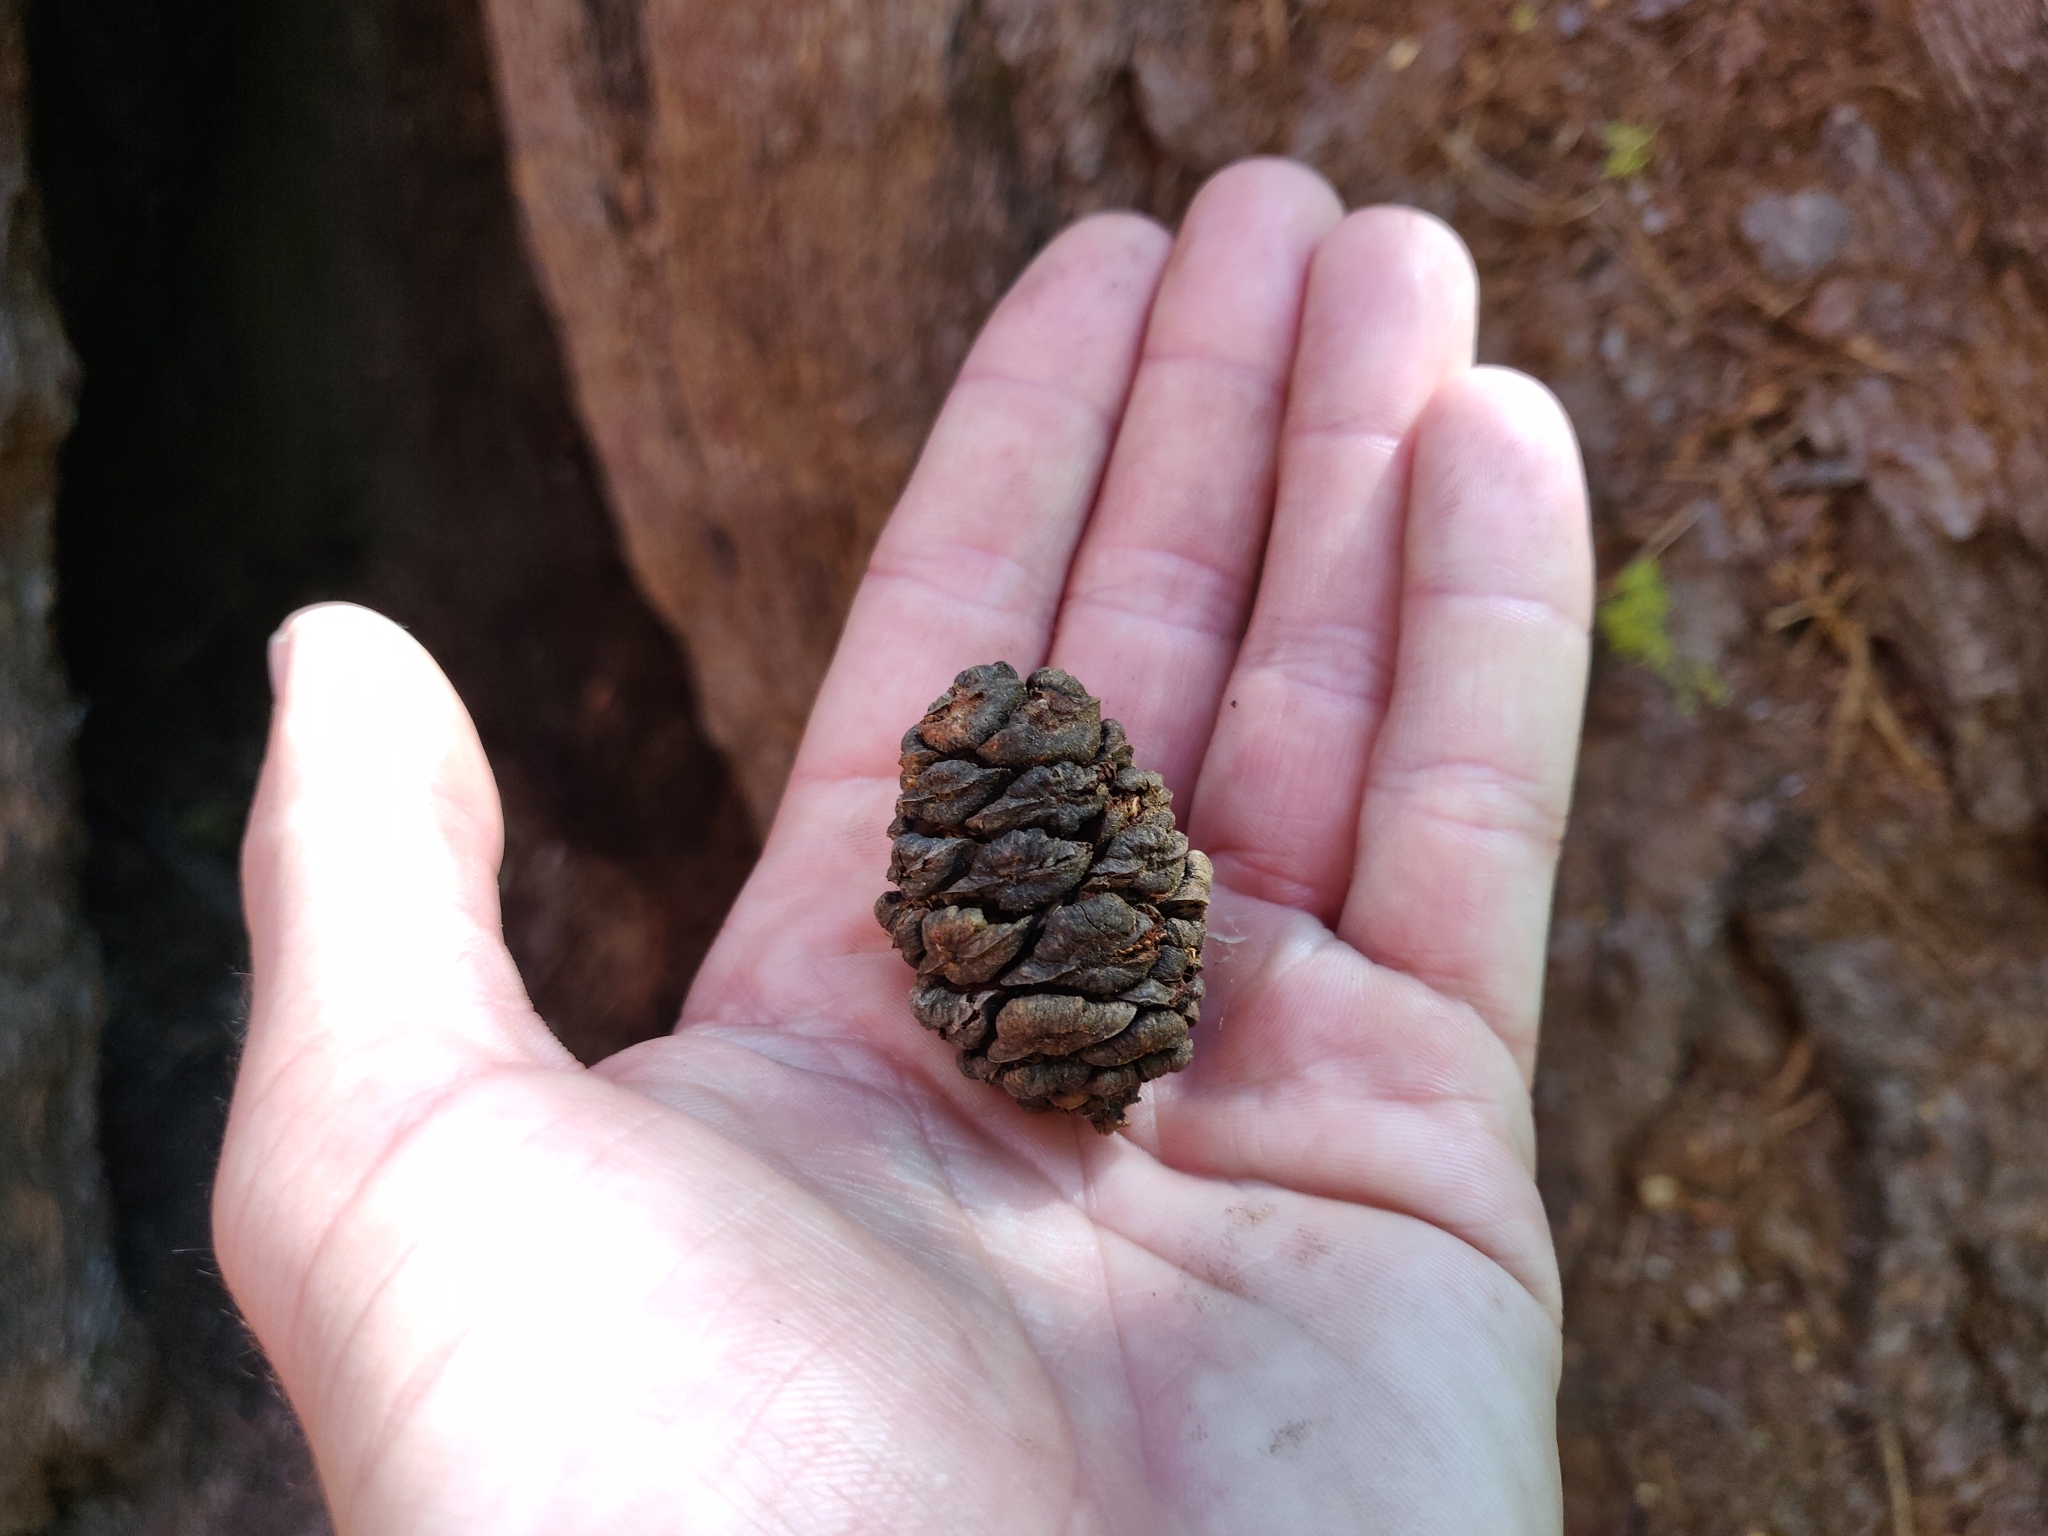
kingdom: Plantae
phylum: Tracheophyta
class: Pinopsida
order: Pinales
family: Cupressaceae
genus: Sequoiadendron
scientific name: Sequoiadendron giganteum
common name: Wellingtonia
